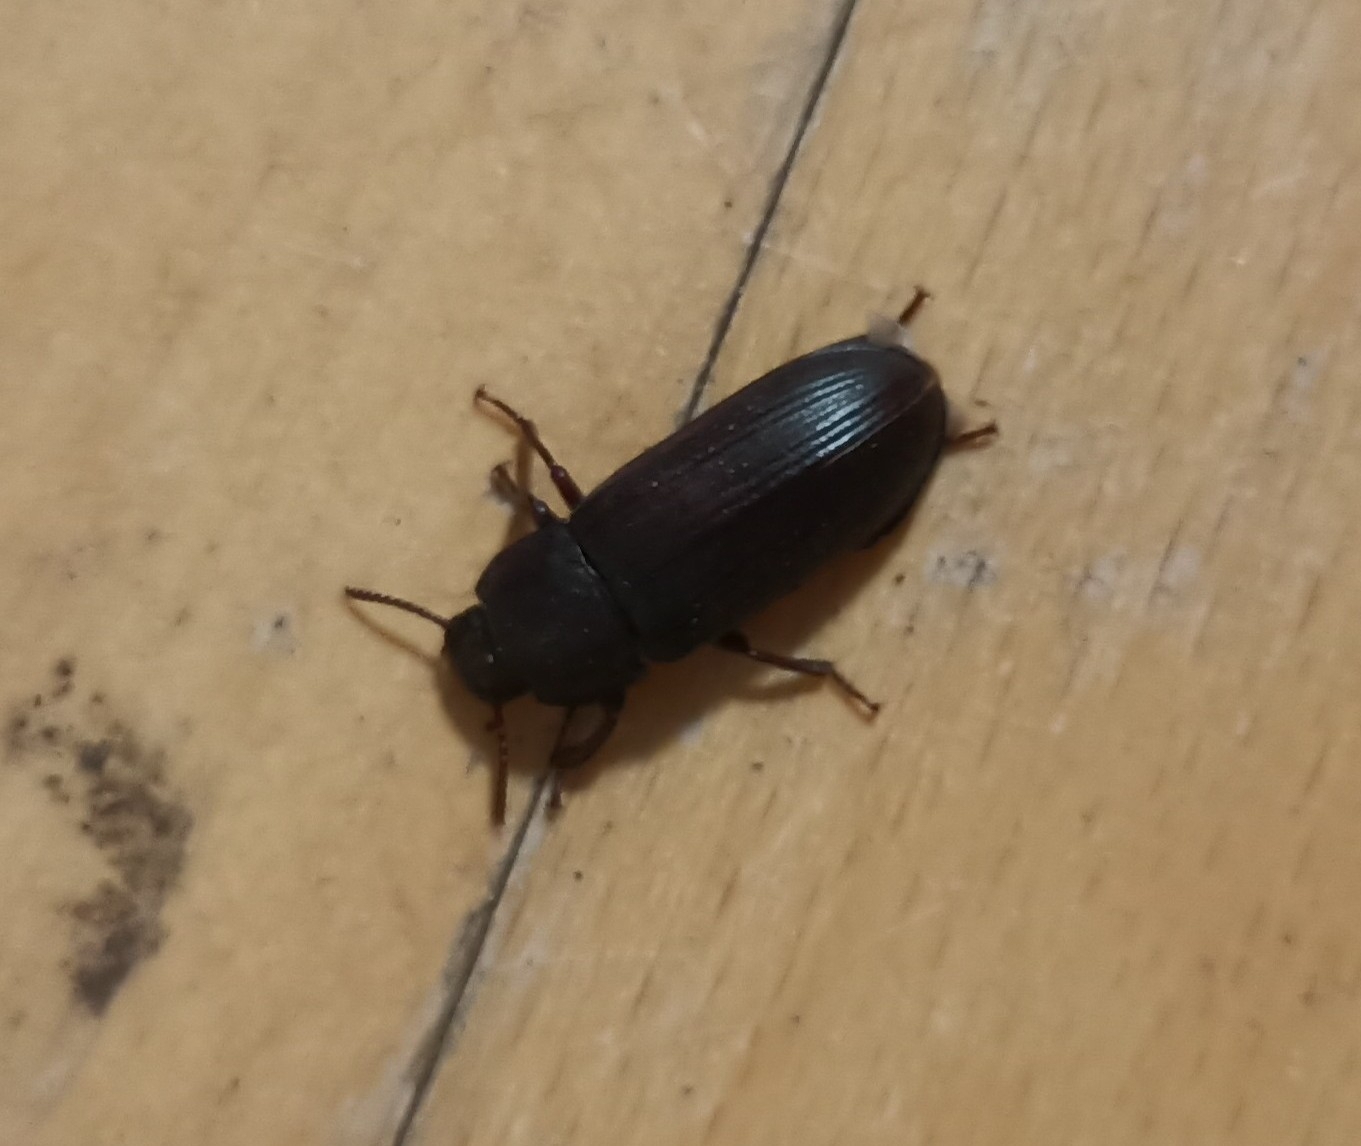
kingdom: Animalia
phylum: Arthropoda
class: Insecta
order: Coleoptera
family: Tenebrionidae
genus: Tenebrio
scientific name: Tenebrio molitor
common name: Hardback beetle
